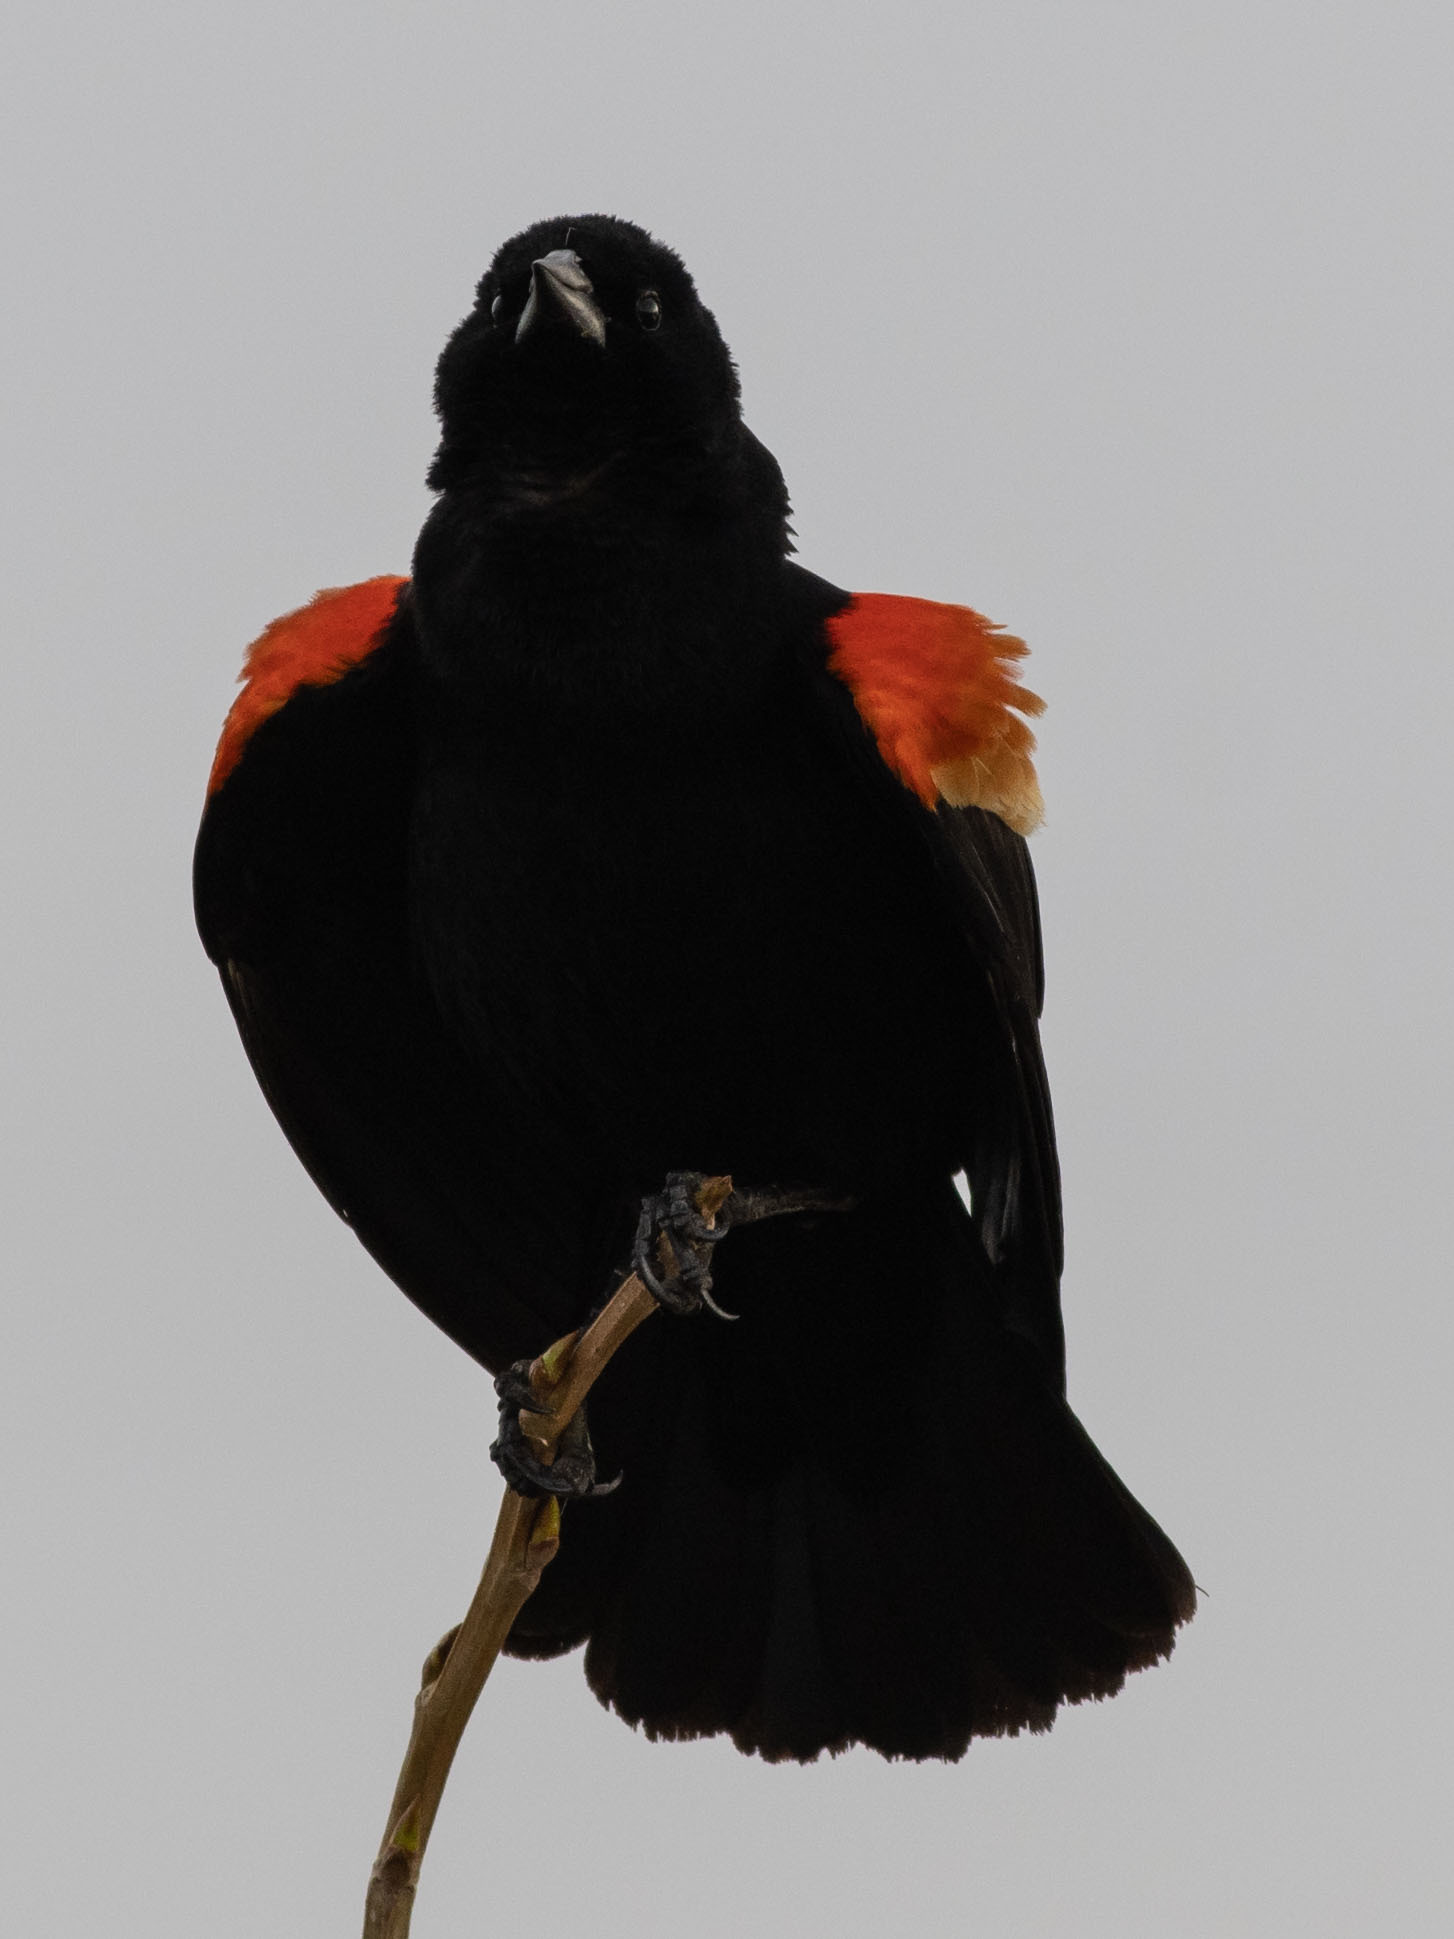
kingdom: Animalia
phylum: Chordata
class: Aves
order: Passeriformes
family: Icteridae
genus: Agelaius
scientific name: Agelaius phoeniceus
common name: Red-winged blackbird
